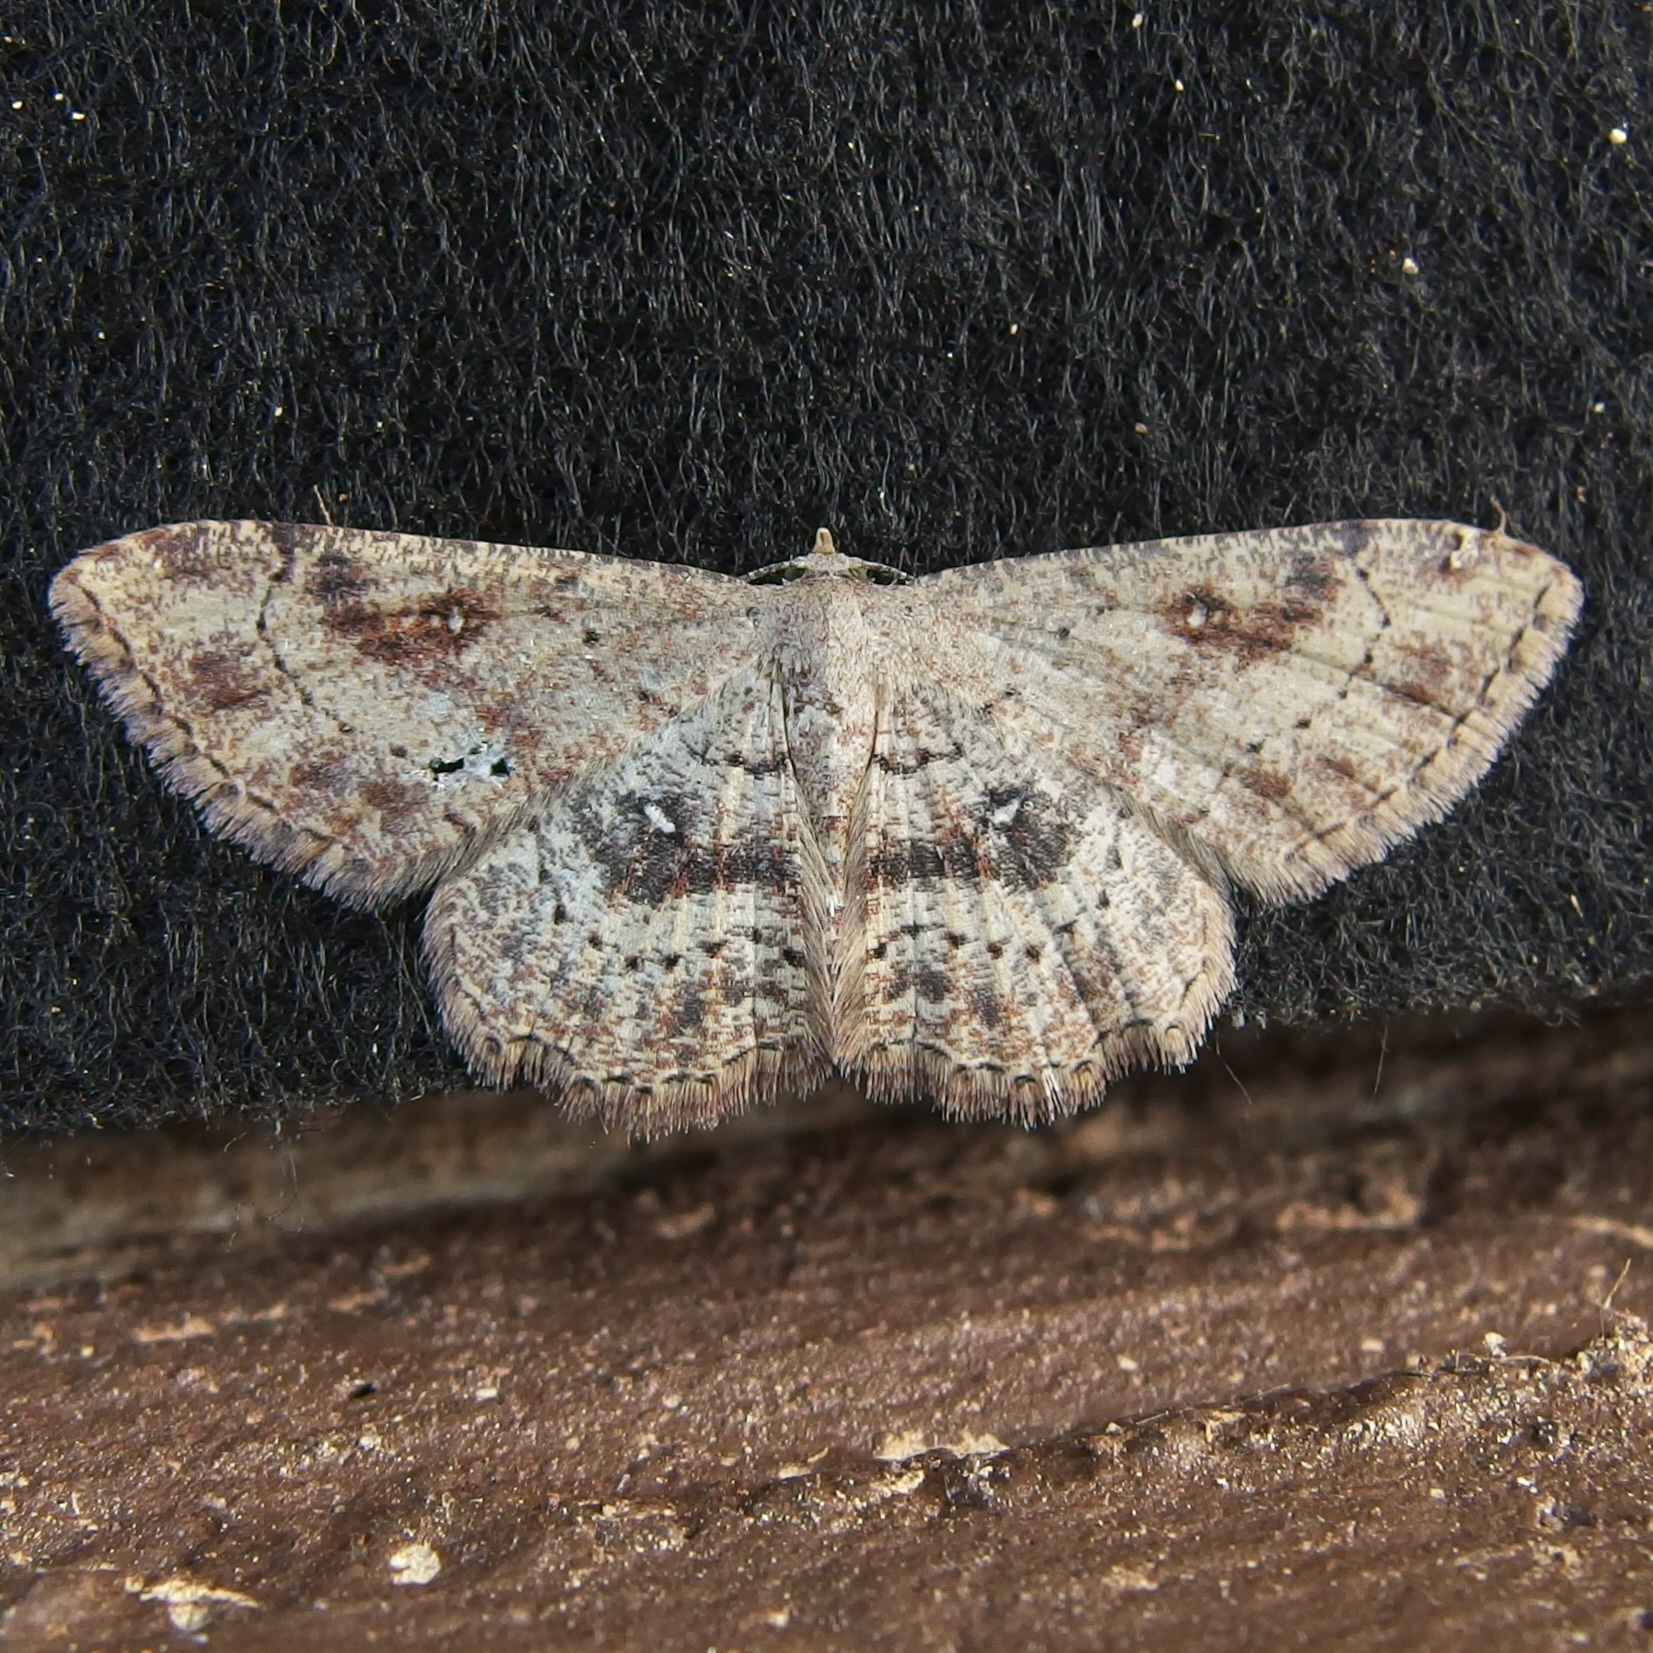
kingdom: Animalia
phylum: Arthropoda
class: Insecta
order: Lepidoptera
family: Geometridae
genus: Cyclophora
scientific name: Cyclophora nanaria
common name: Cankerworm
